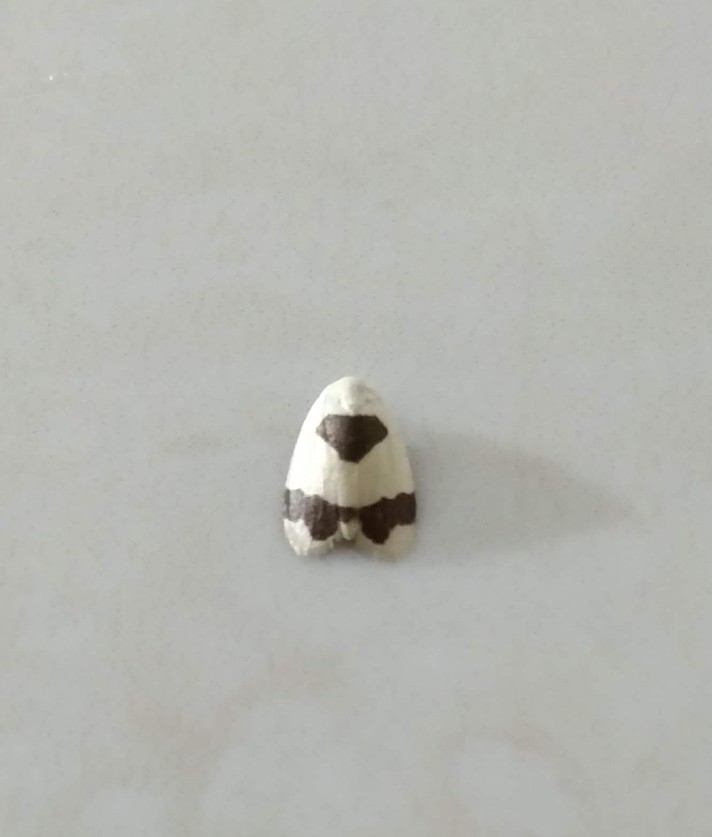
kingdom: Animalia
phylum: Arthropoda
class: Insecta
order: Lepidoptera
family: Erebidae
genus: Garudinia
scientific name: Garudinia latana
